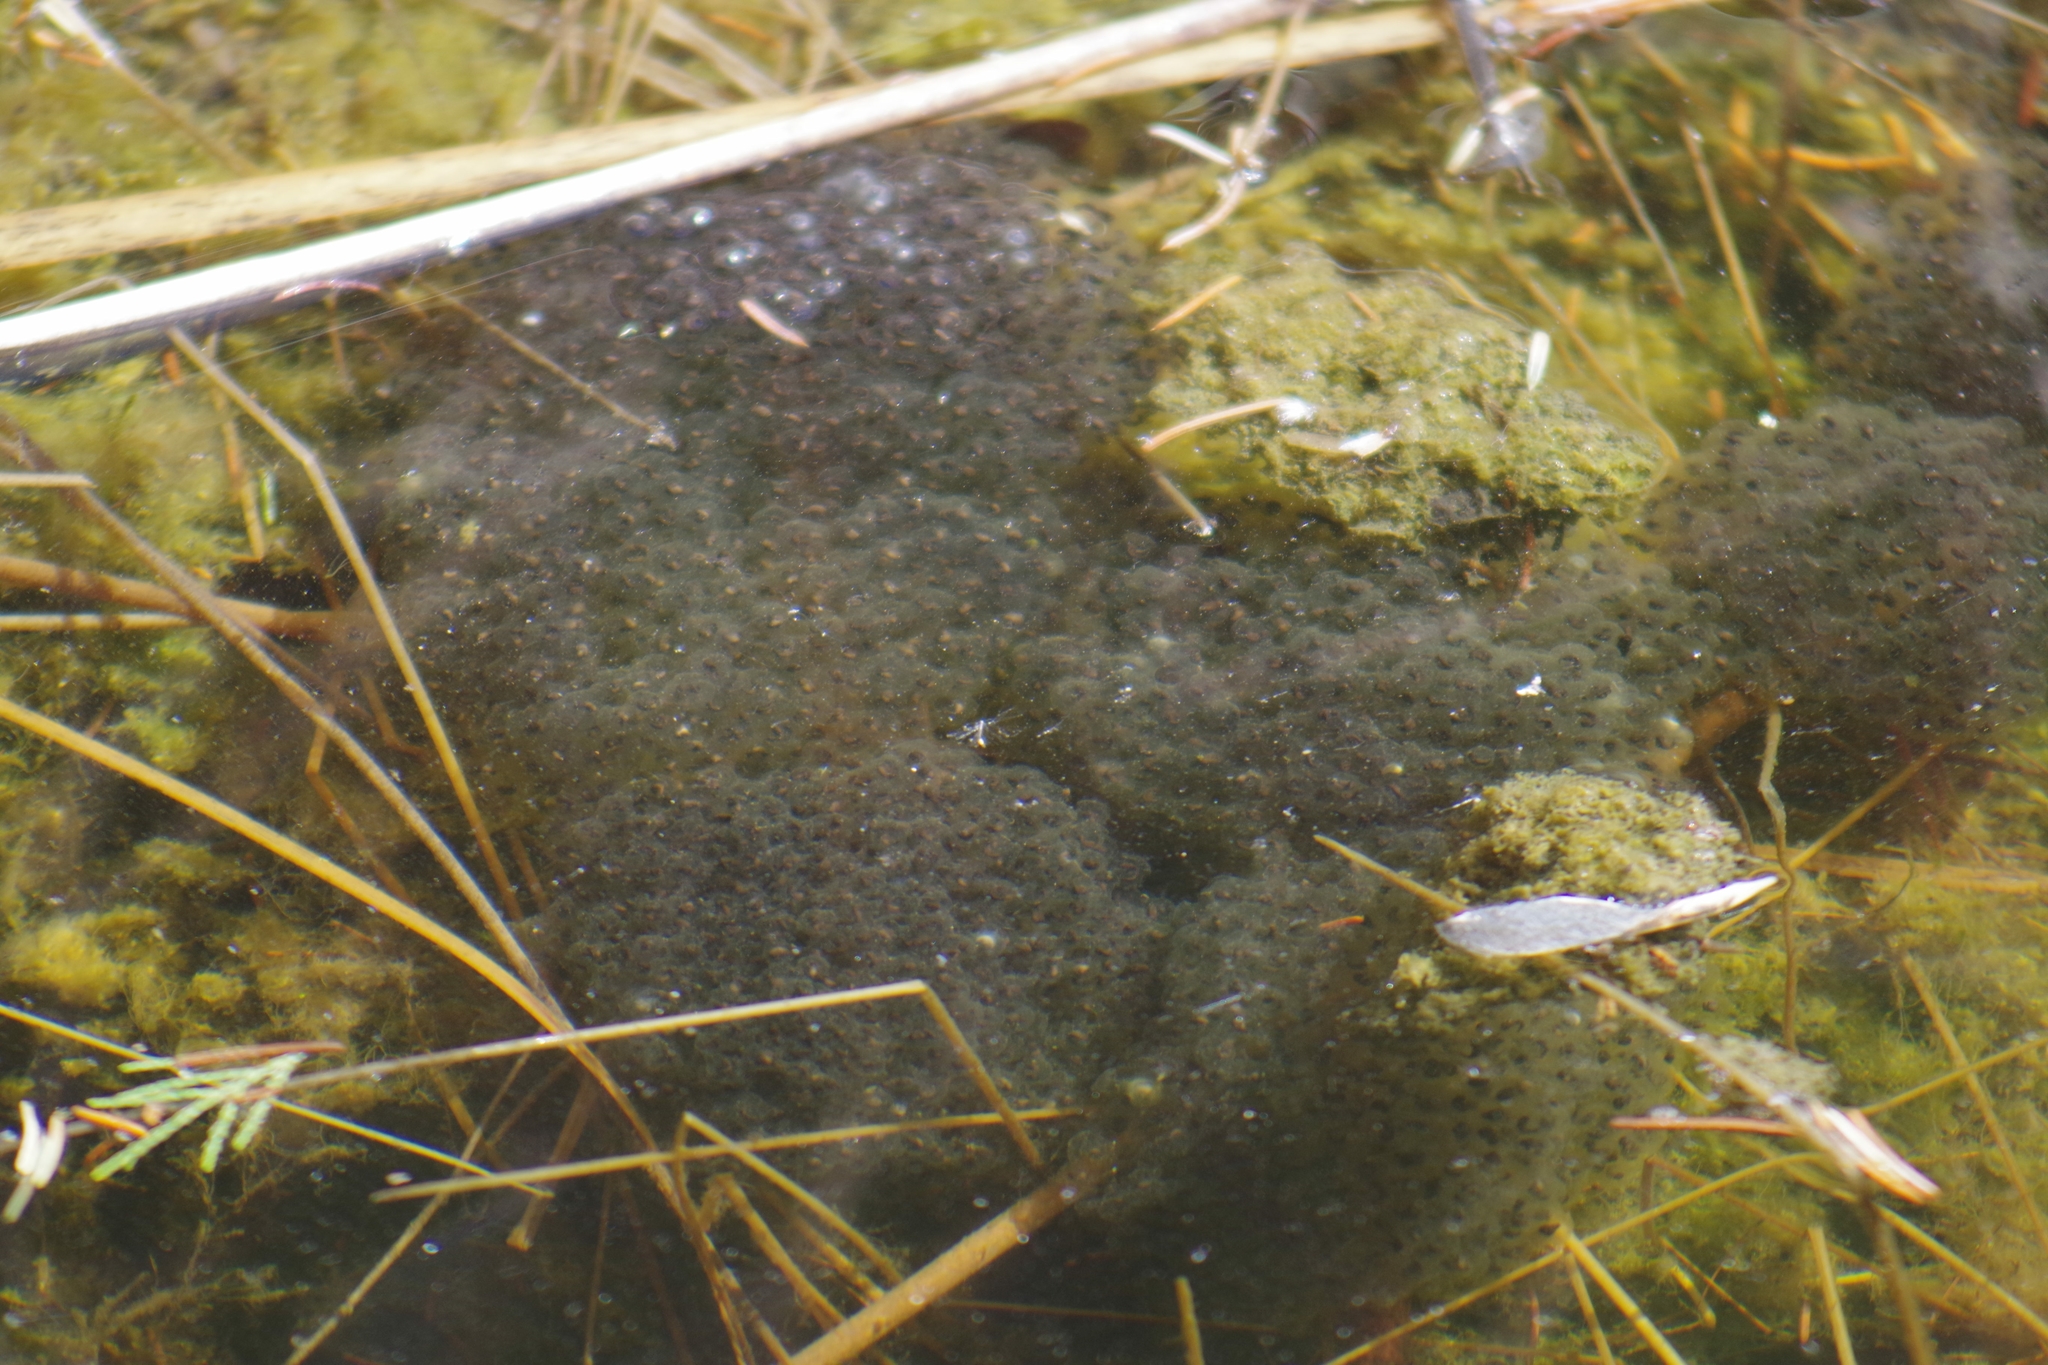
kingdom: Animalia
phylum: Chordata
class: Amphibia
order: Anura
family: Ranidae
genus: Lithobates
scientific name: Lithobates sylvaticus
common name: Wood frog
